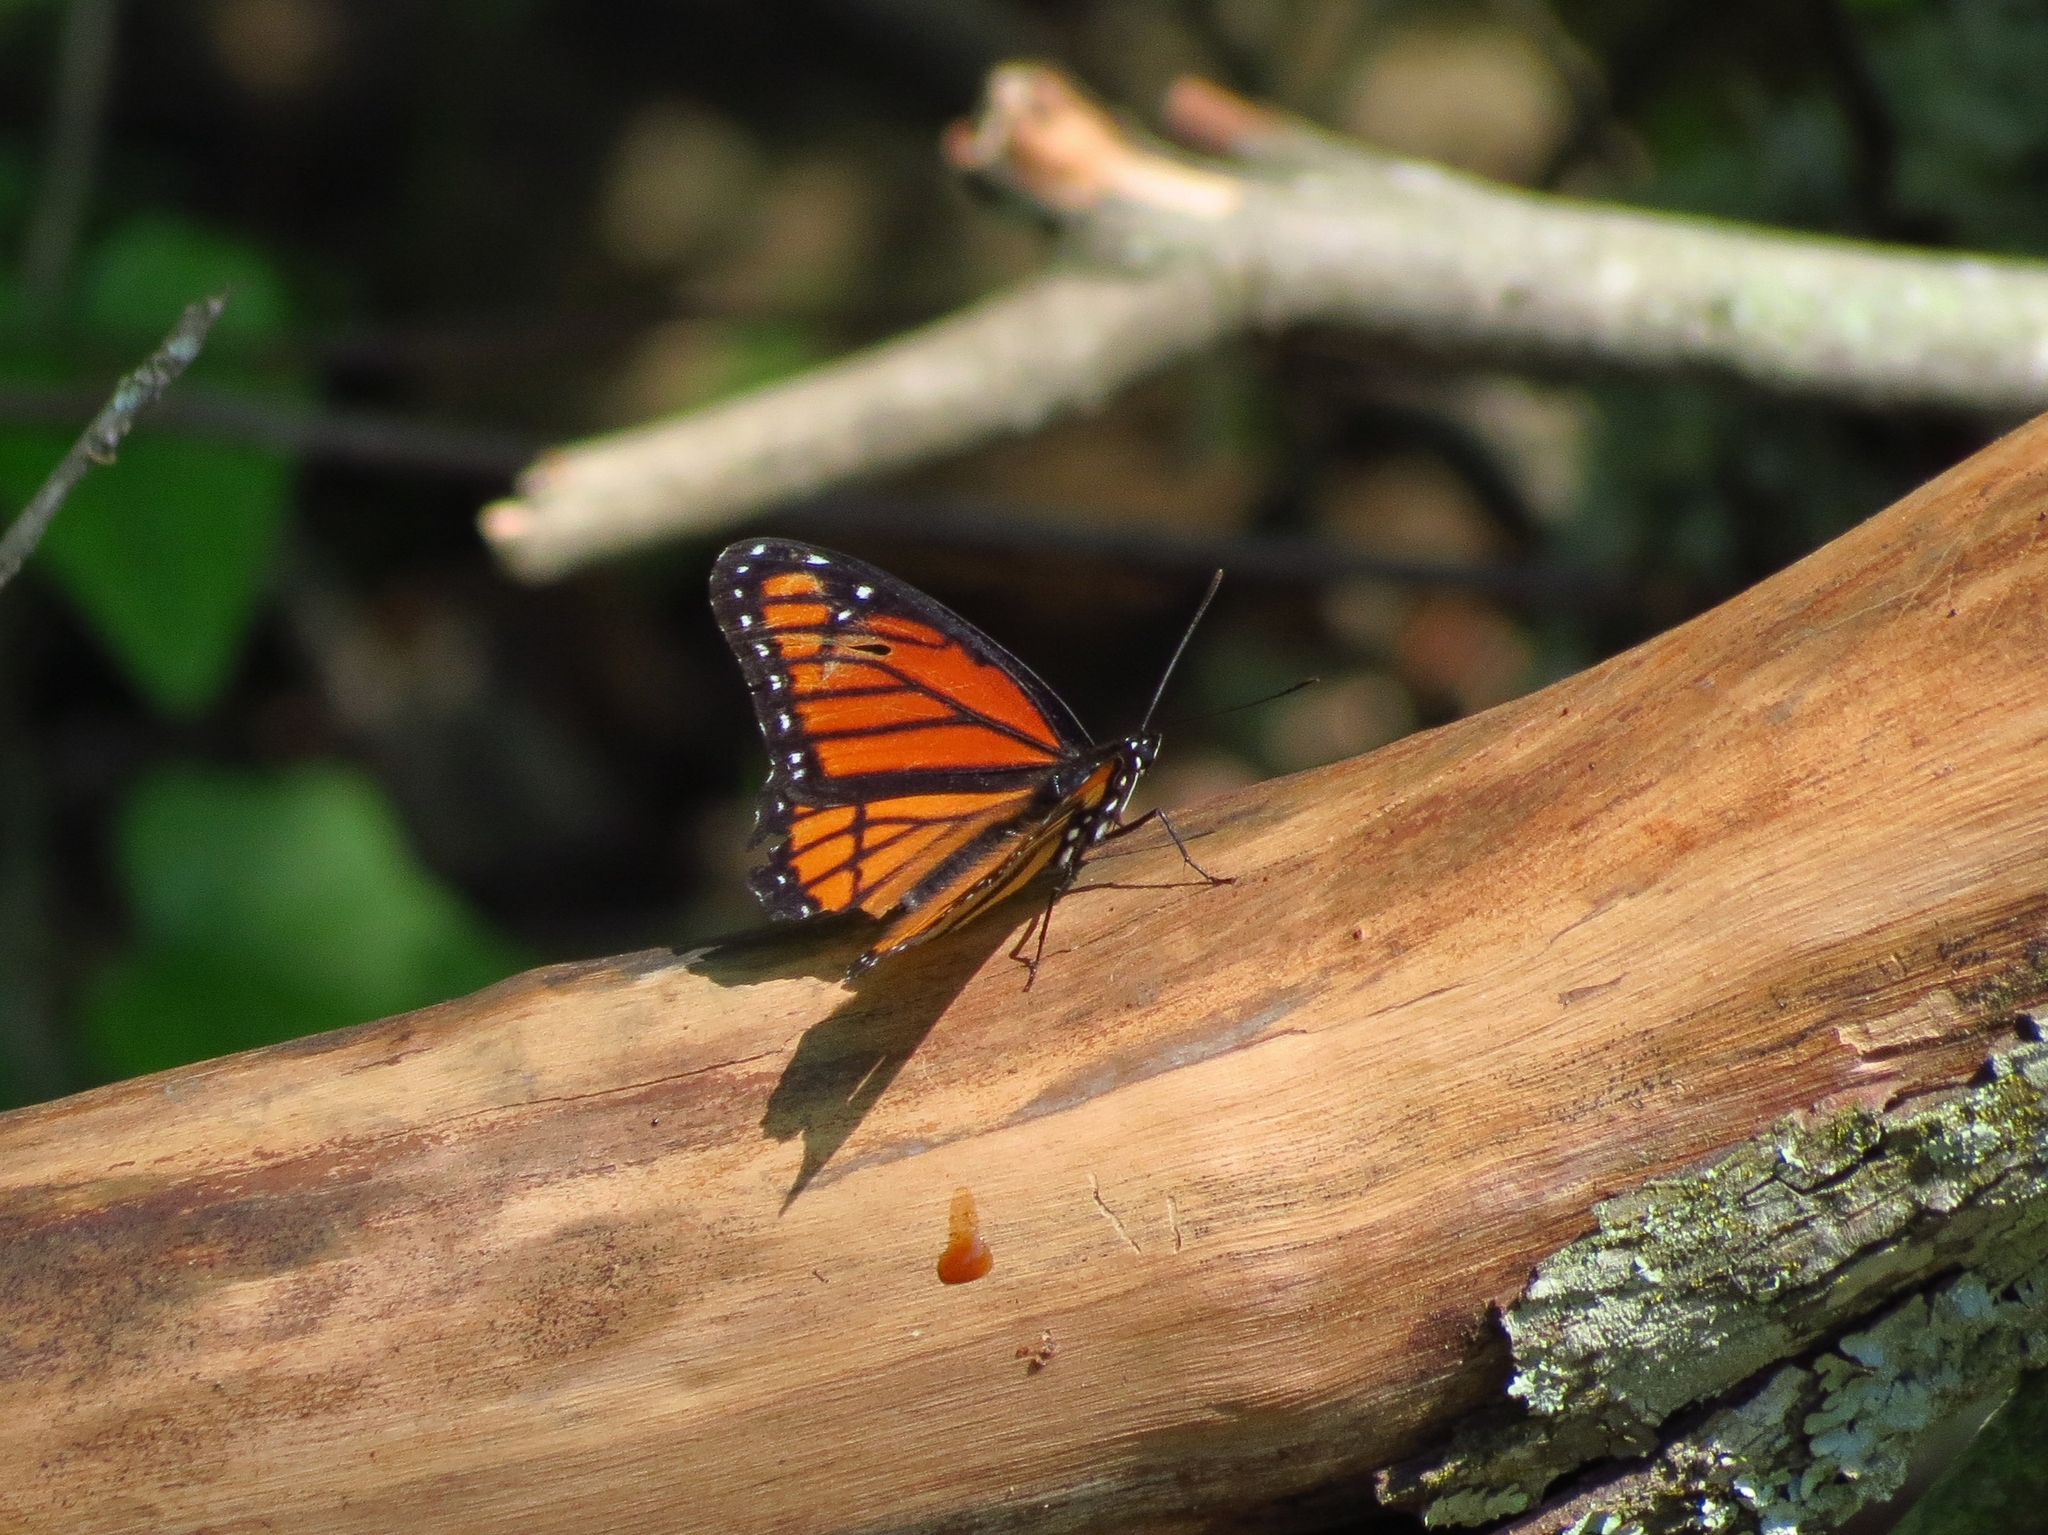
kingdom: Animalia
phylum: Arthropoda
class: Insecta
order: Lepidoptera
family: Nymphalidae
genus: Limenitis
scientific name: Limenitis archippus
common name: Viceroy
